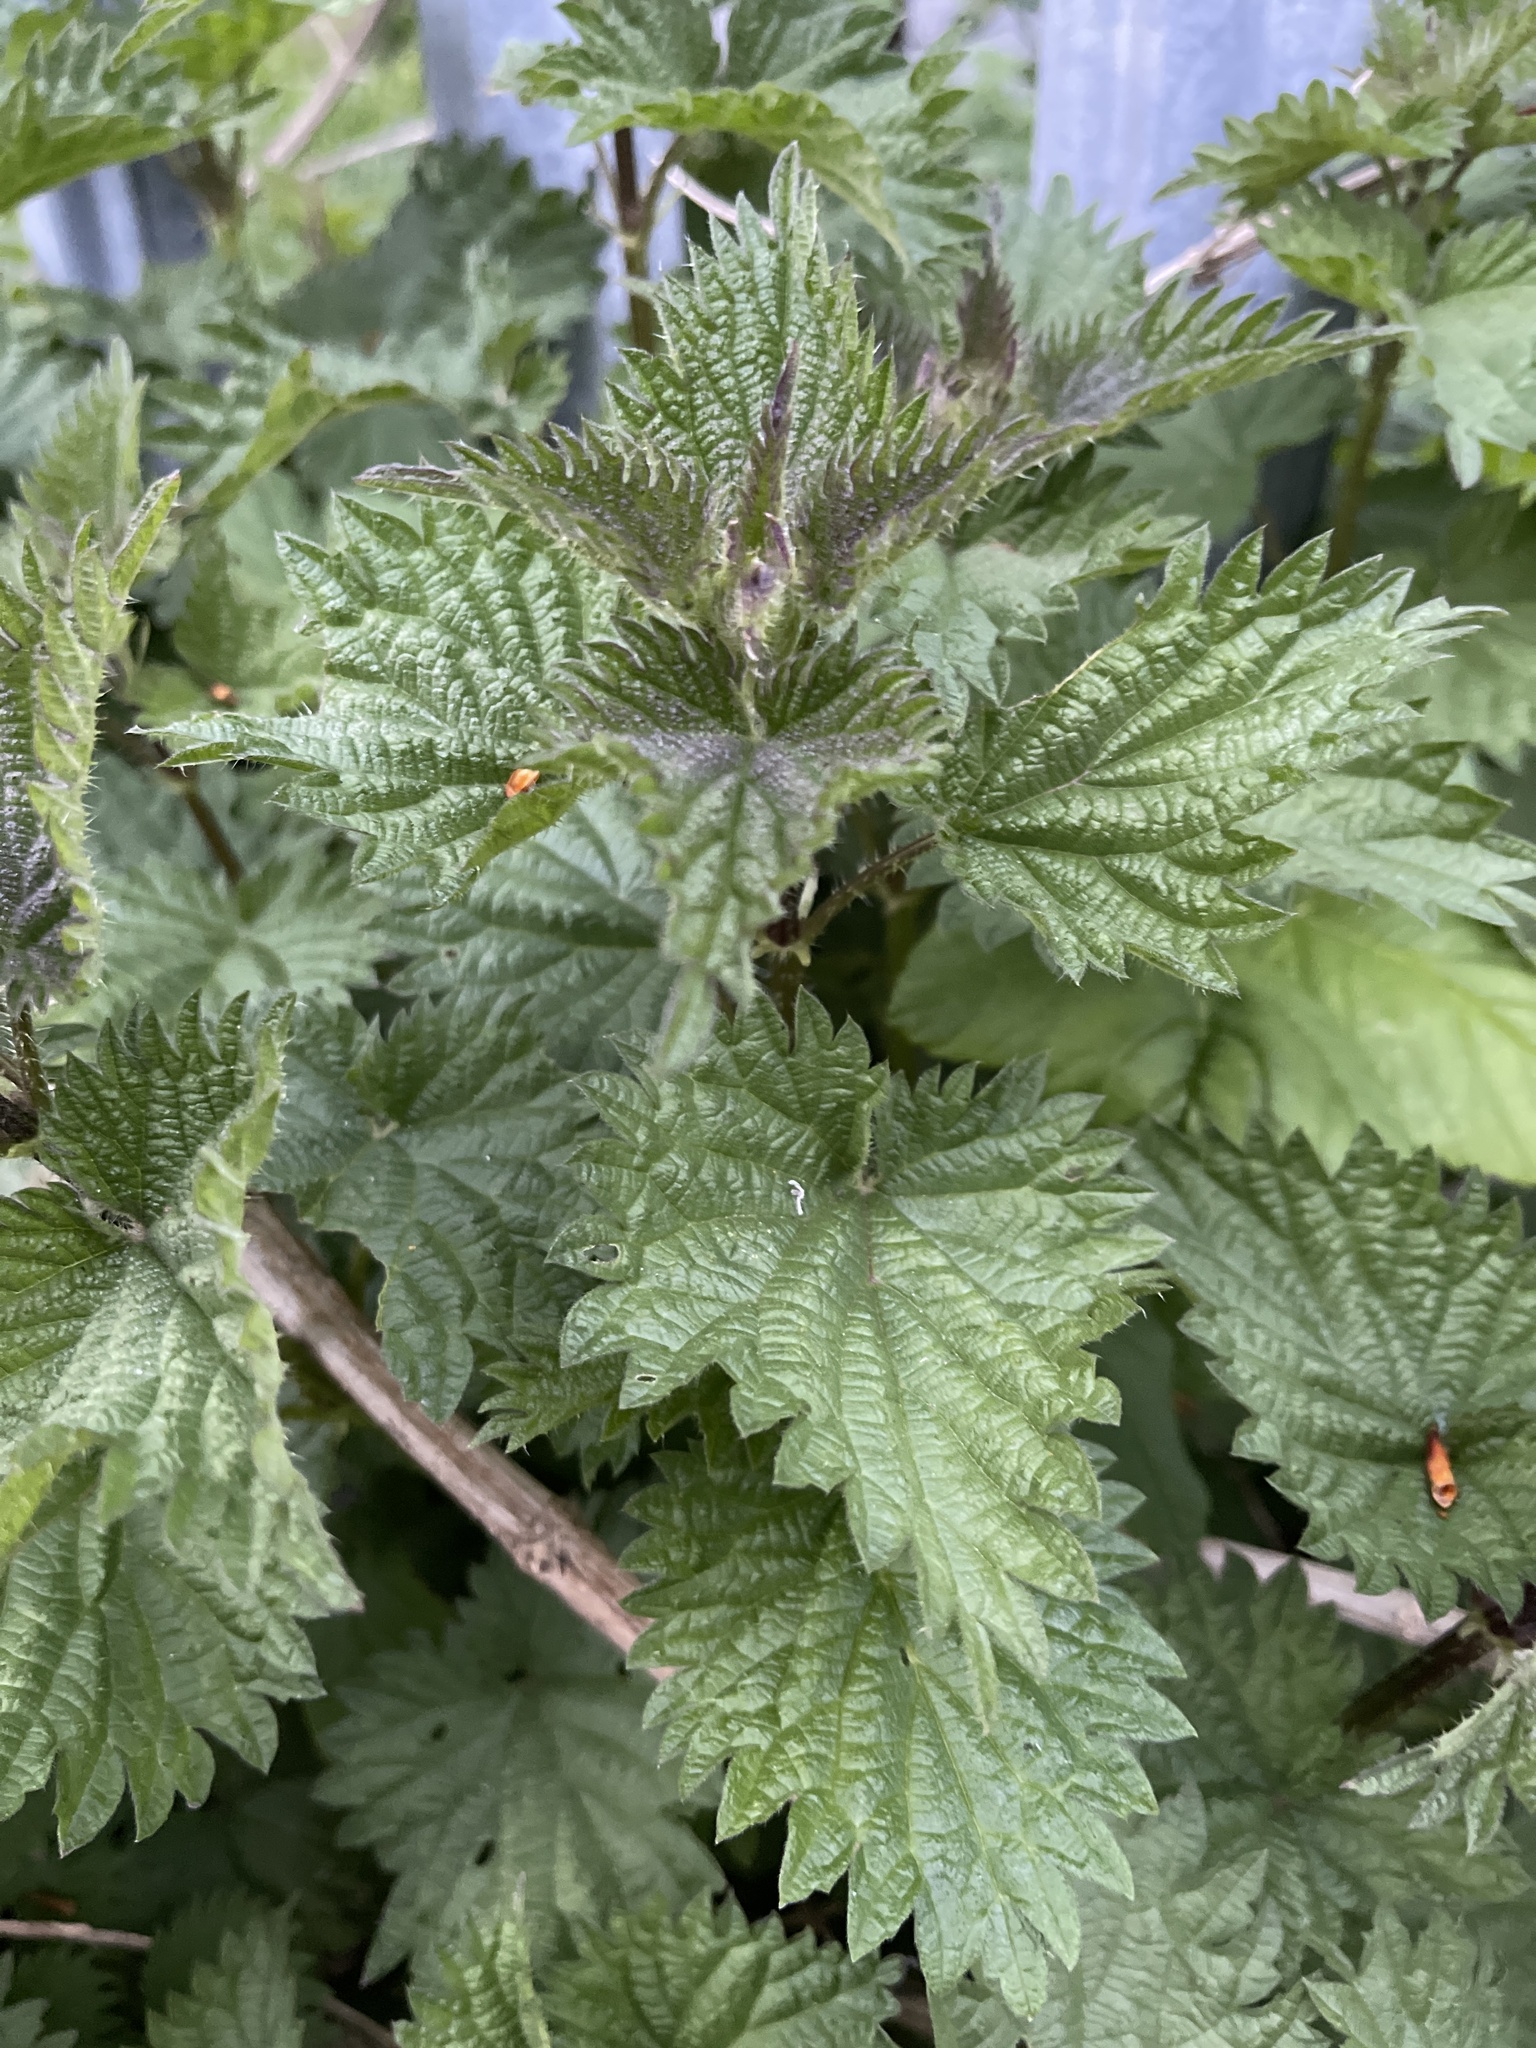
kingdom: Plantae
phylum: Tracheophyta
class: Magnoliopsida
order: Rosales
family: Urticaceae
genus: Urtica
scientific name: Urtica dioica
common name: Common nettle
